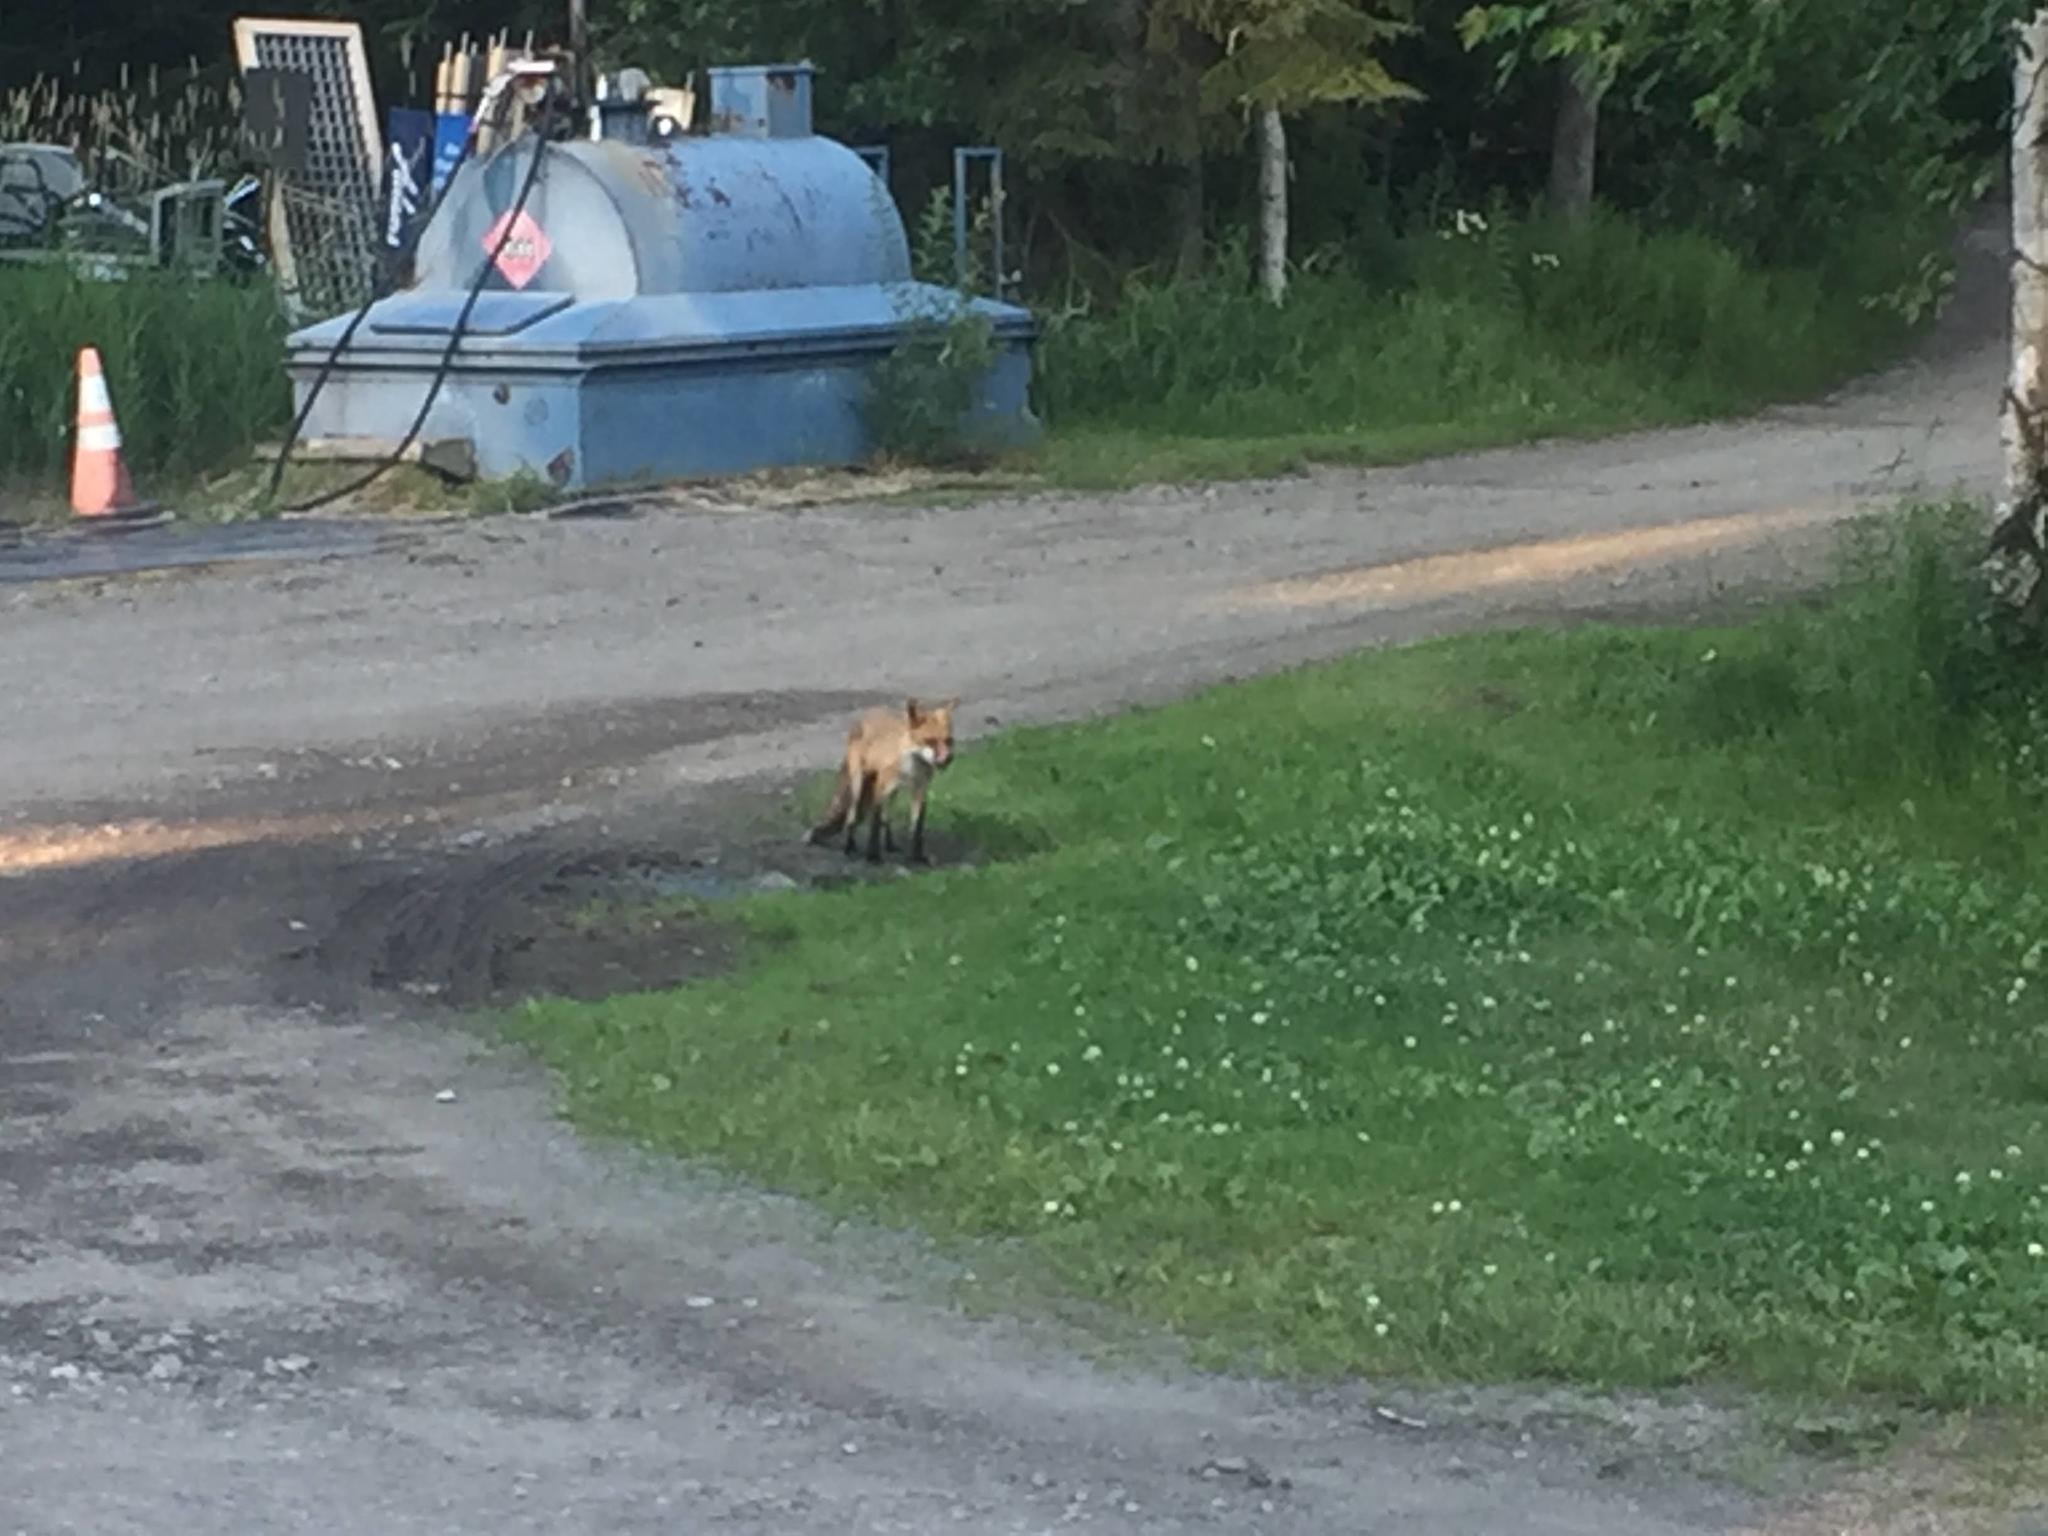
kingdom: Animalia
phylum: Chordata
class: Mammalia
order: Carnivora
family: Canidae
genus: Vulpes
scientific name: Vulpes vulpes
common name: Red fox
